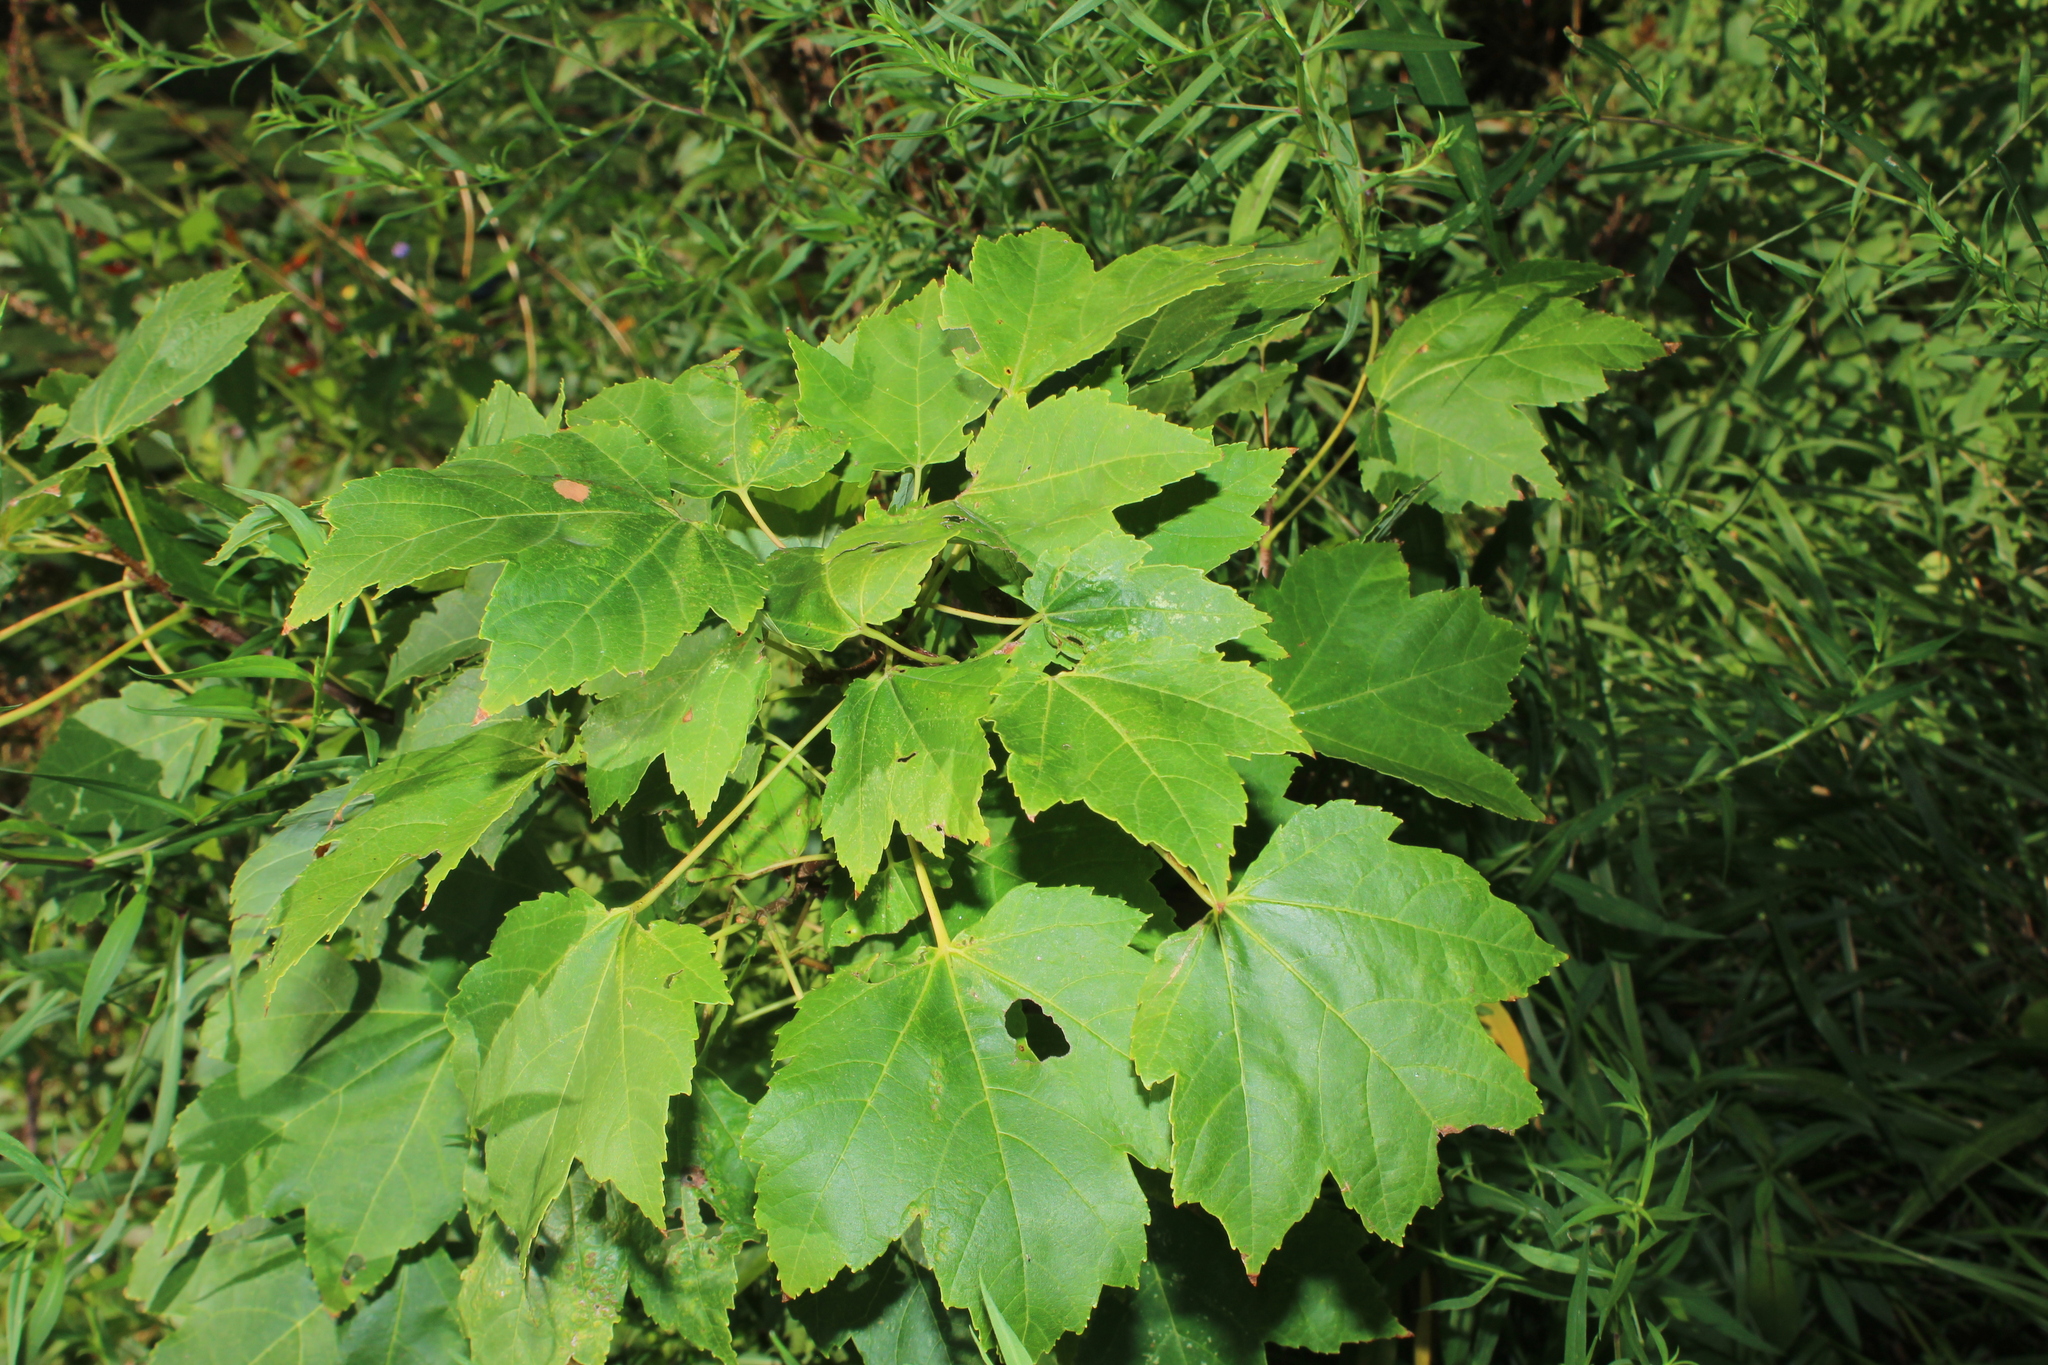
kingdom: Plantae
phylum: Tracheophyta
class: Magnoliopsida
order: Sapindales
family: Sapindaceae
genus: Acer
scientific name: Acer rubrum
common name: Red maple
